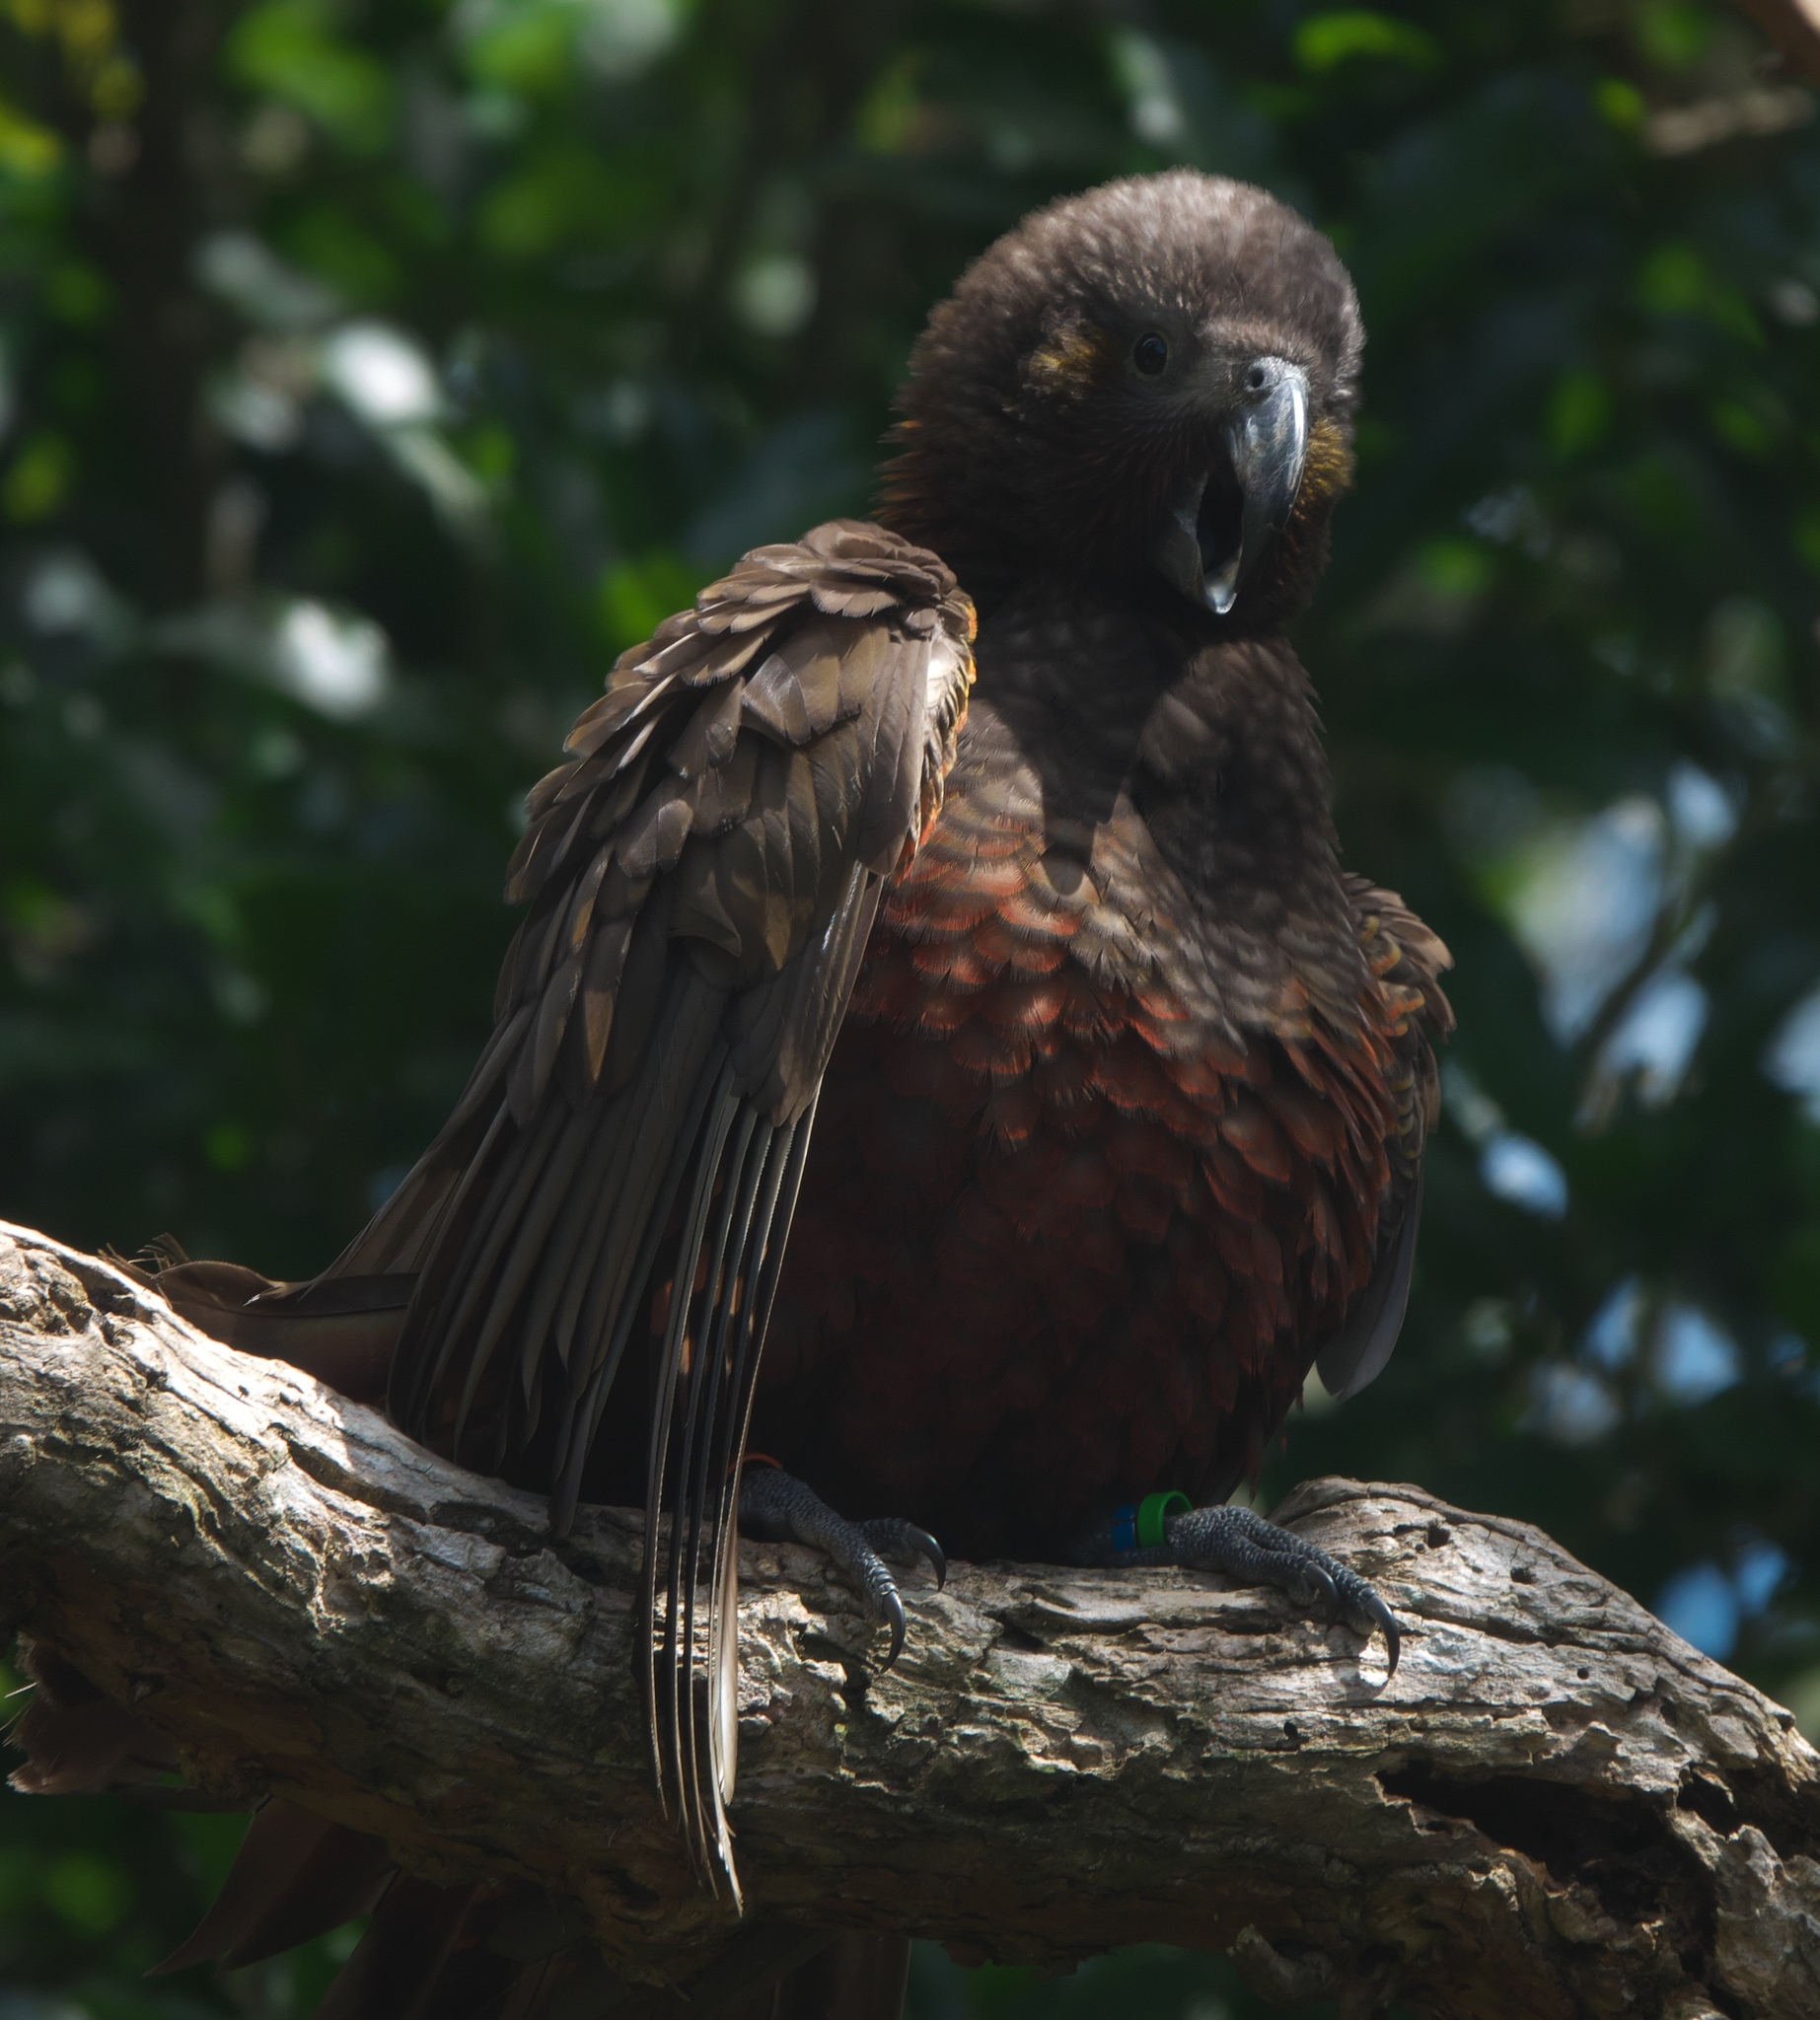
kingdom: Animalia
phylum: Chordata
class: Aves
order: Psittaciformes
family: Psittacidae
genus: Nestor
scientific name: Nestor meridionalis
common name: New zealand kaka
